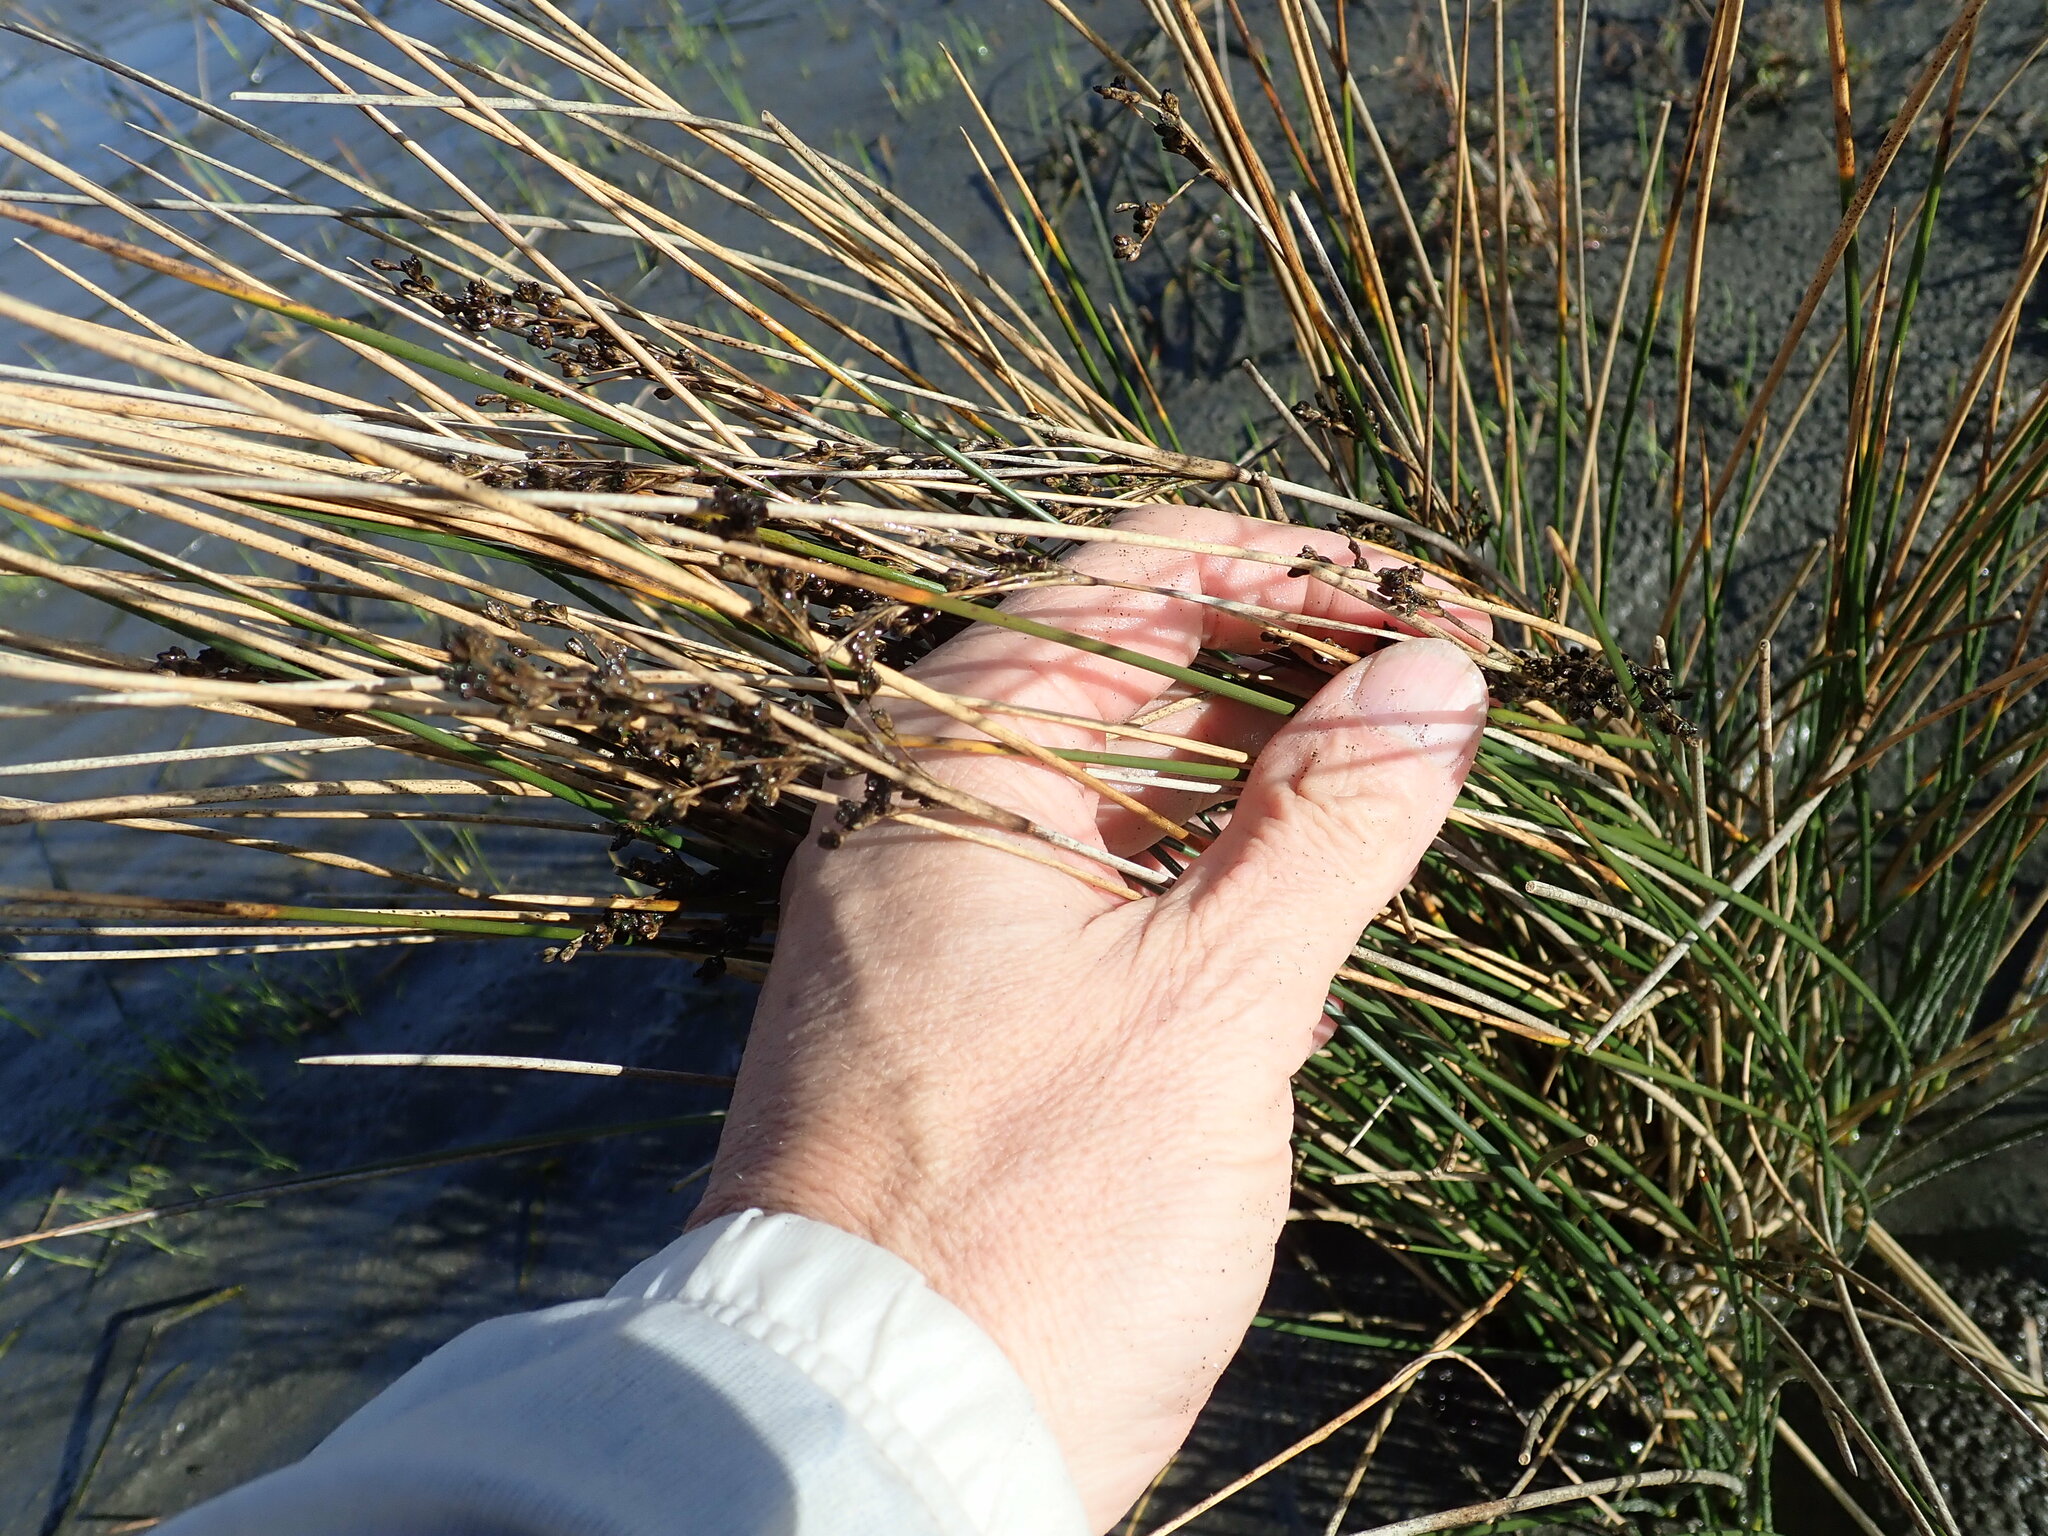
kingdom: Plantae
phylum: Tracheophyta
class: Liliopsida
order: Poales
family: Juncaceae
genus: Juncus
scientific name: Juncus kraussii
